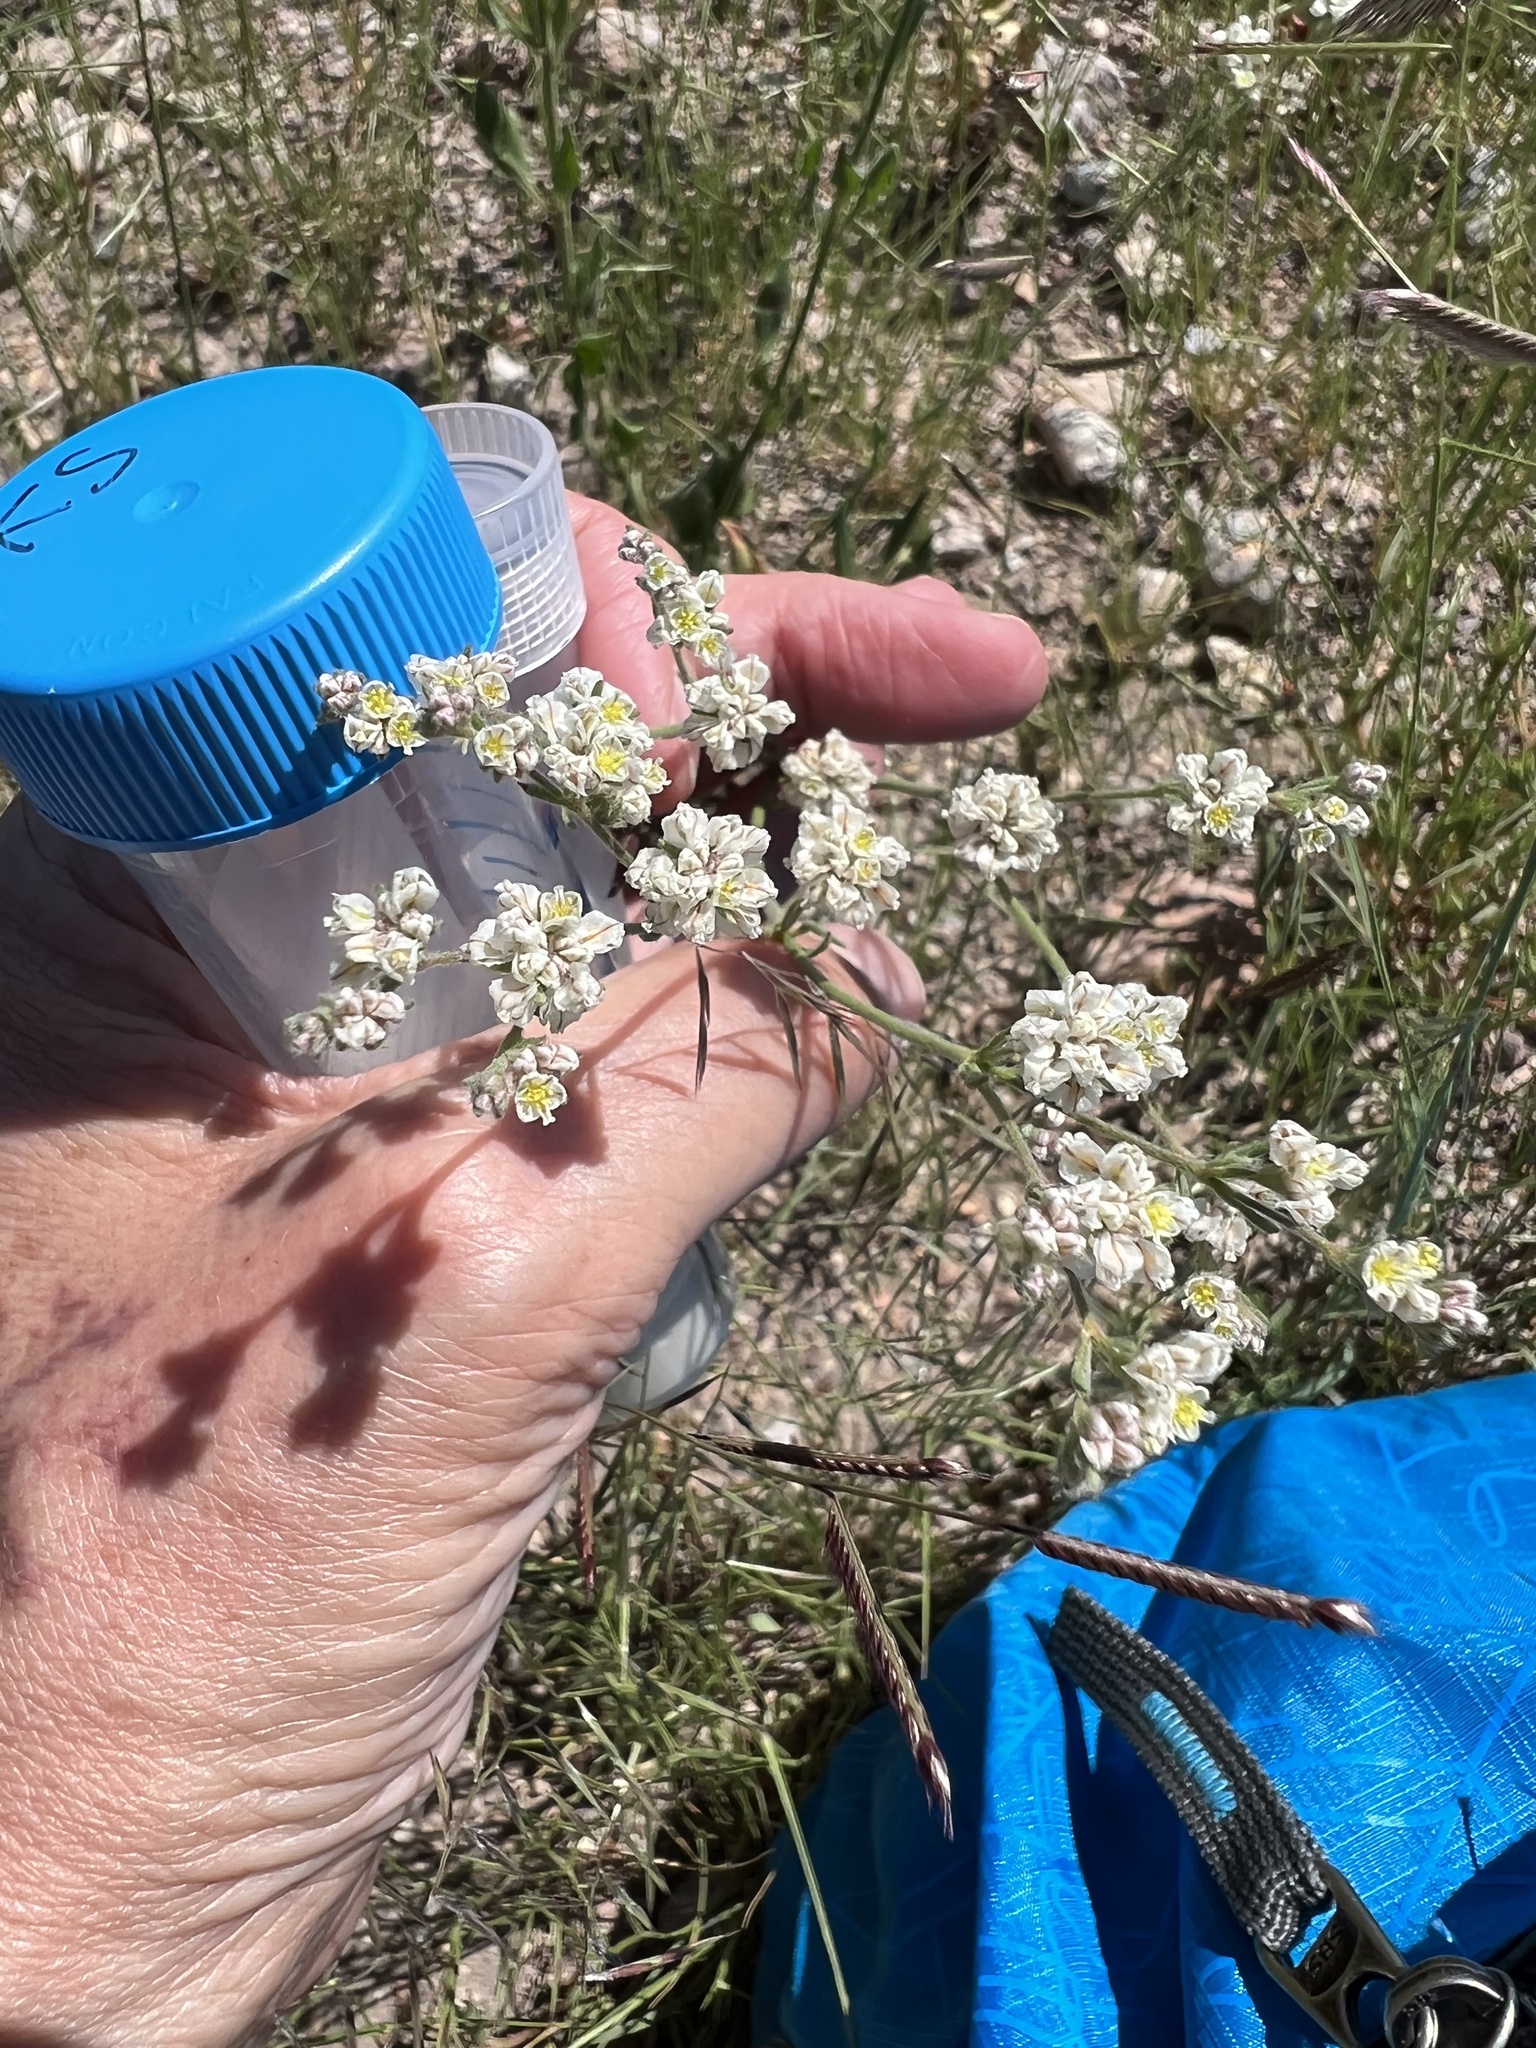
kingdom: Plantae
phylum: Tracheophyta
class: Magnoliopsida
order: Caryophyllales
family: Polygonaceae
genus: Eriogonum
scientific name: Eriogonum abertianum
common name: Abert's wild buckwheat
